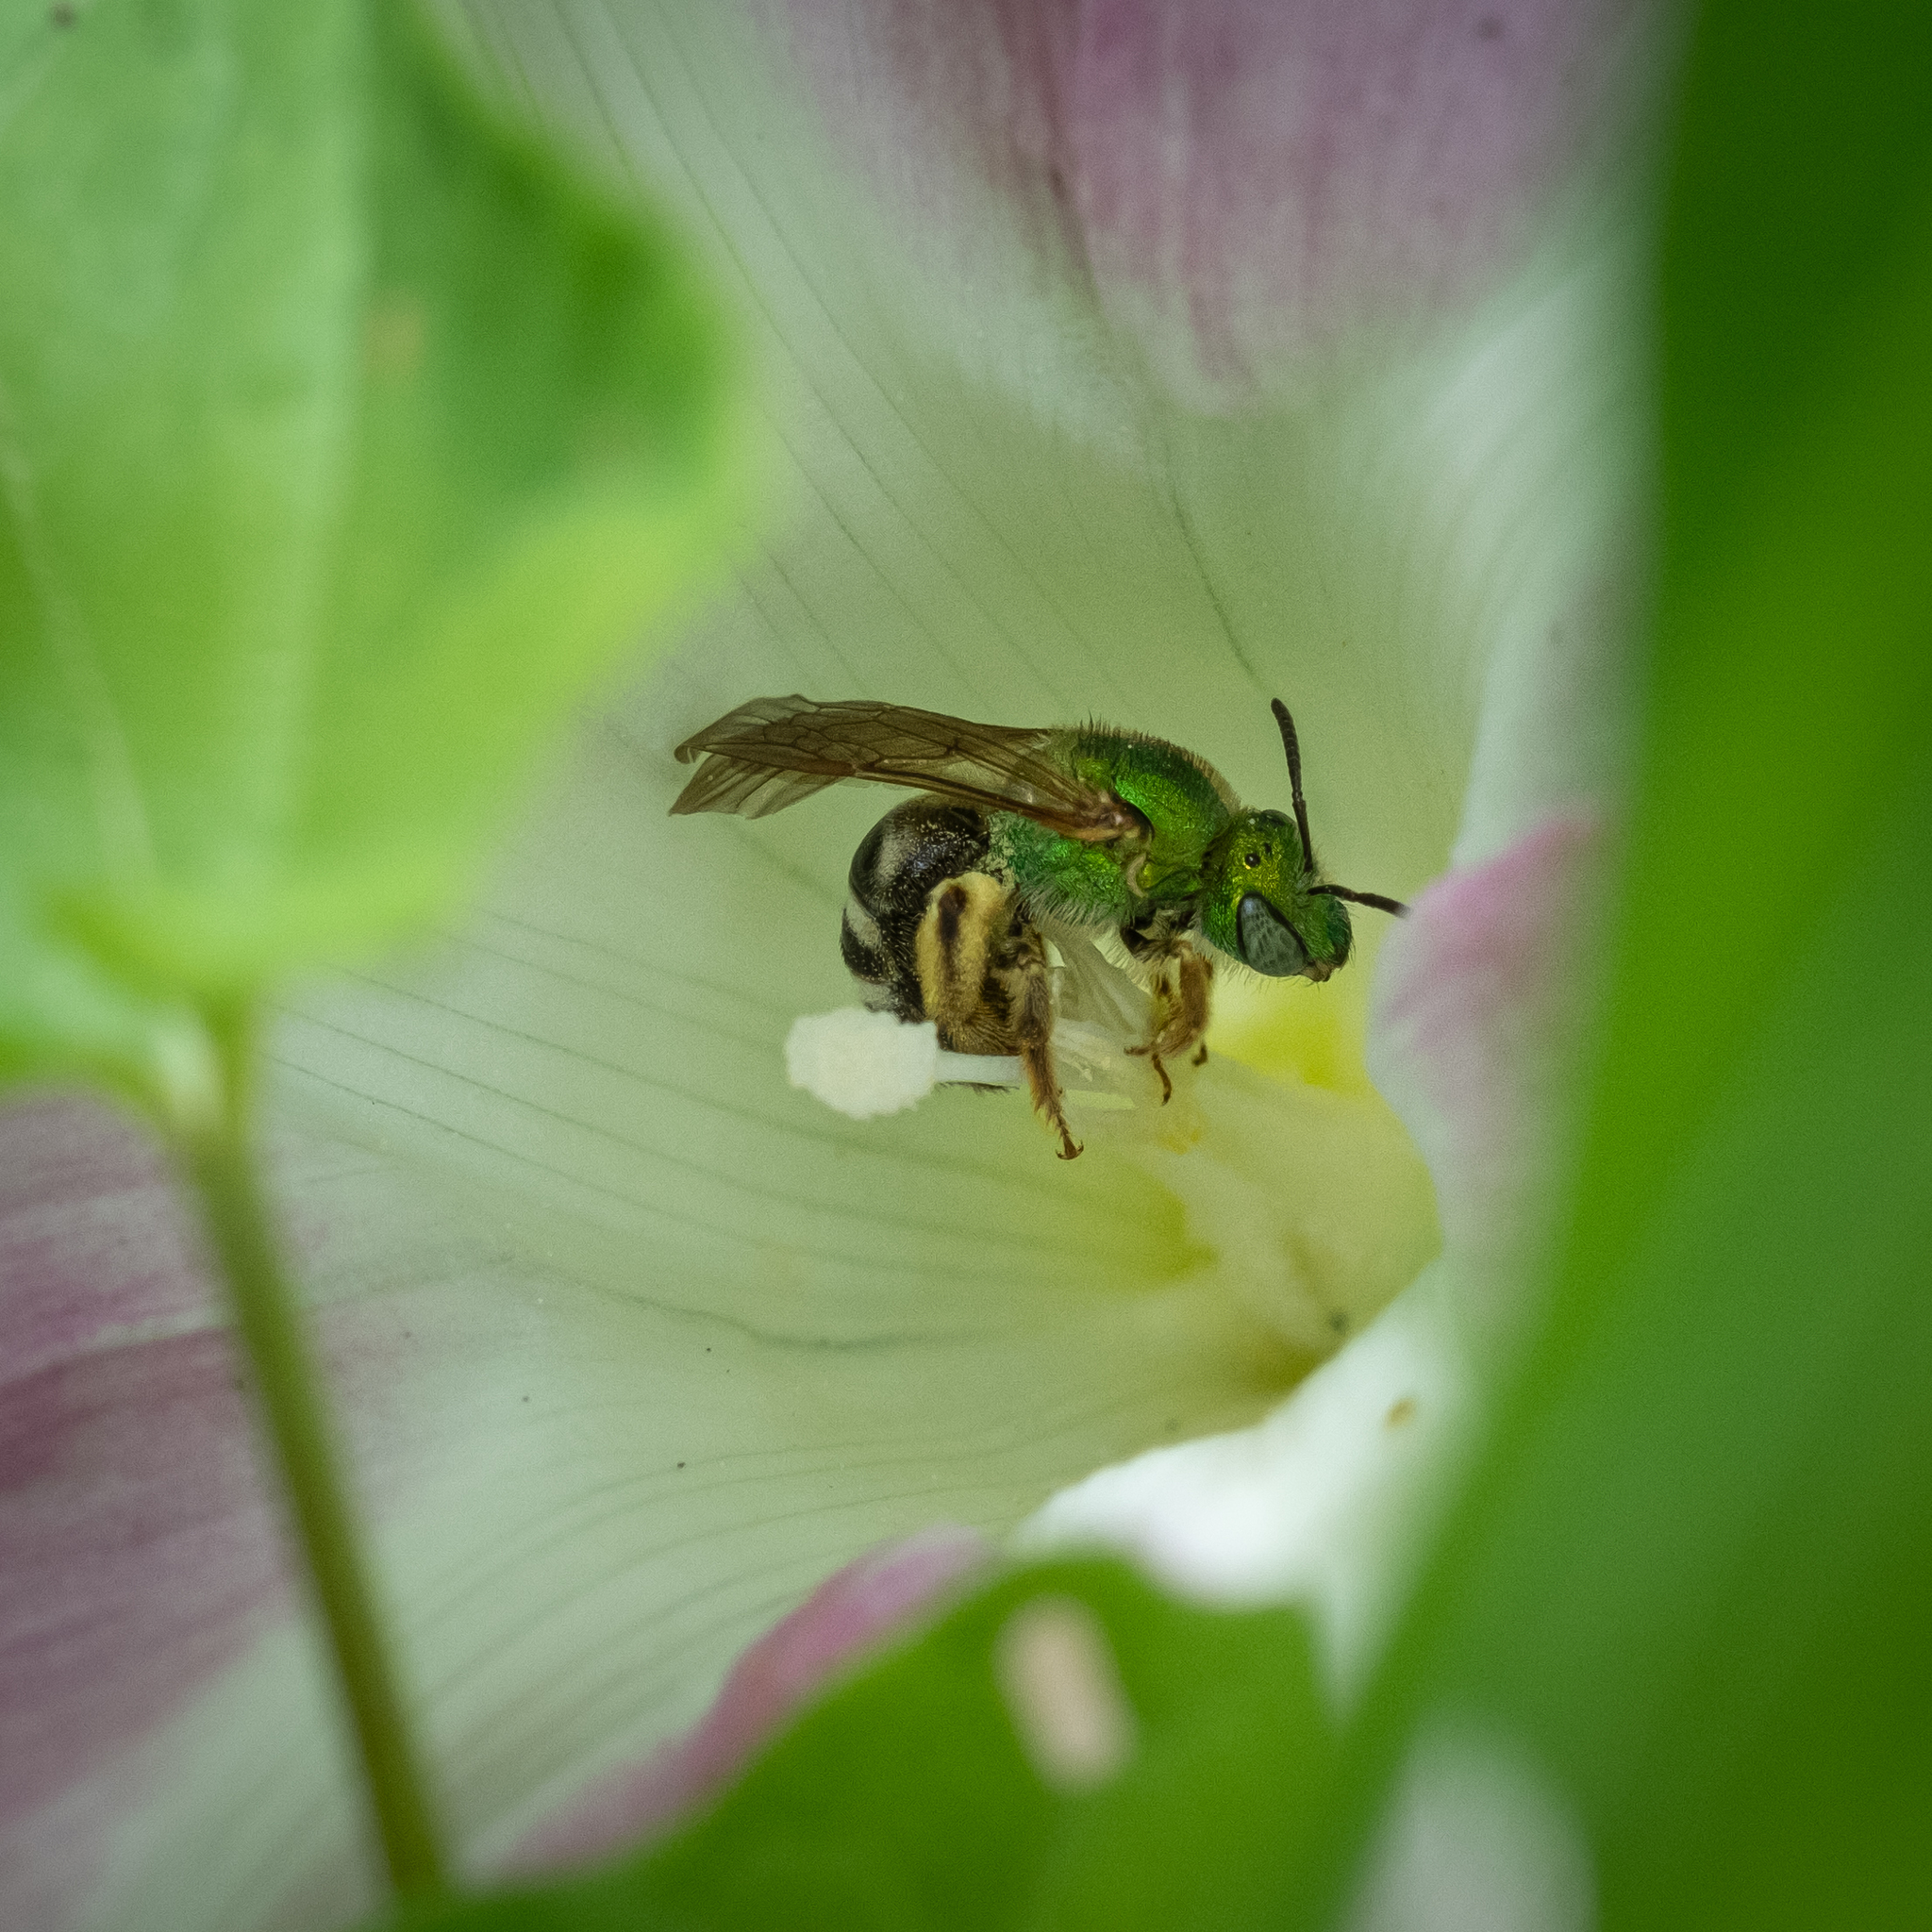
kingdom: Animalia
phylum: Arthropoda
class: Insecta
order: Hymenoptera
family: Halictidae
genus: Agapostemon
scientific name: Agapostemon virescens
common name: Bicolored striped sweat bee
